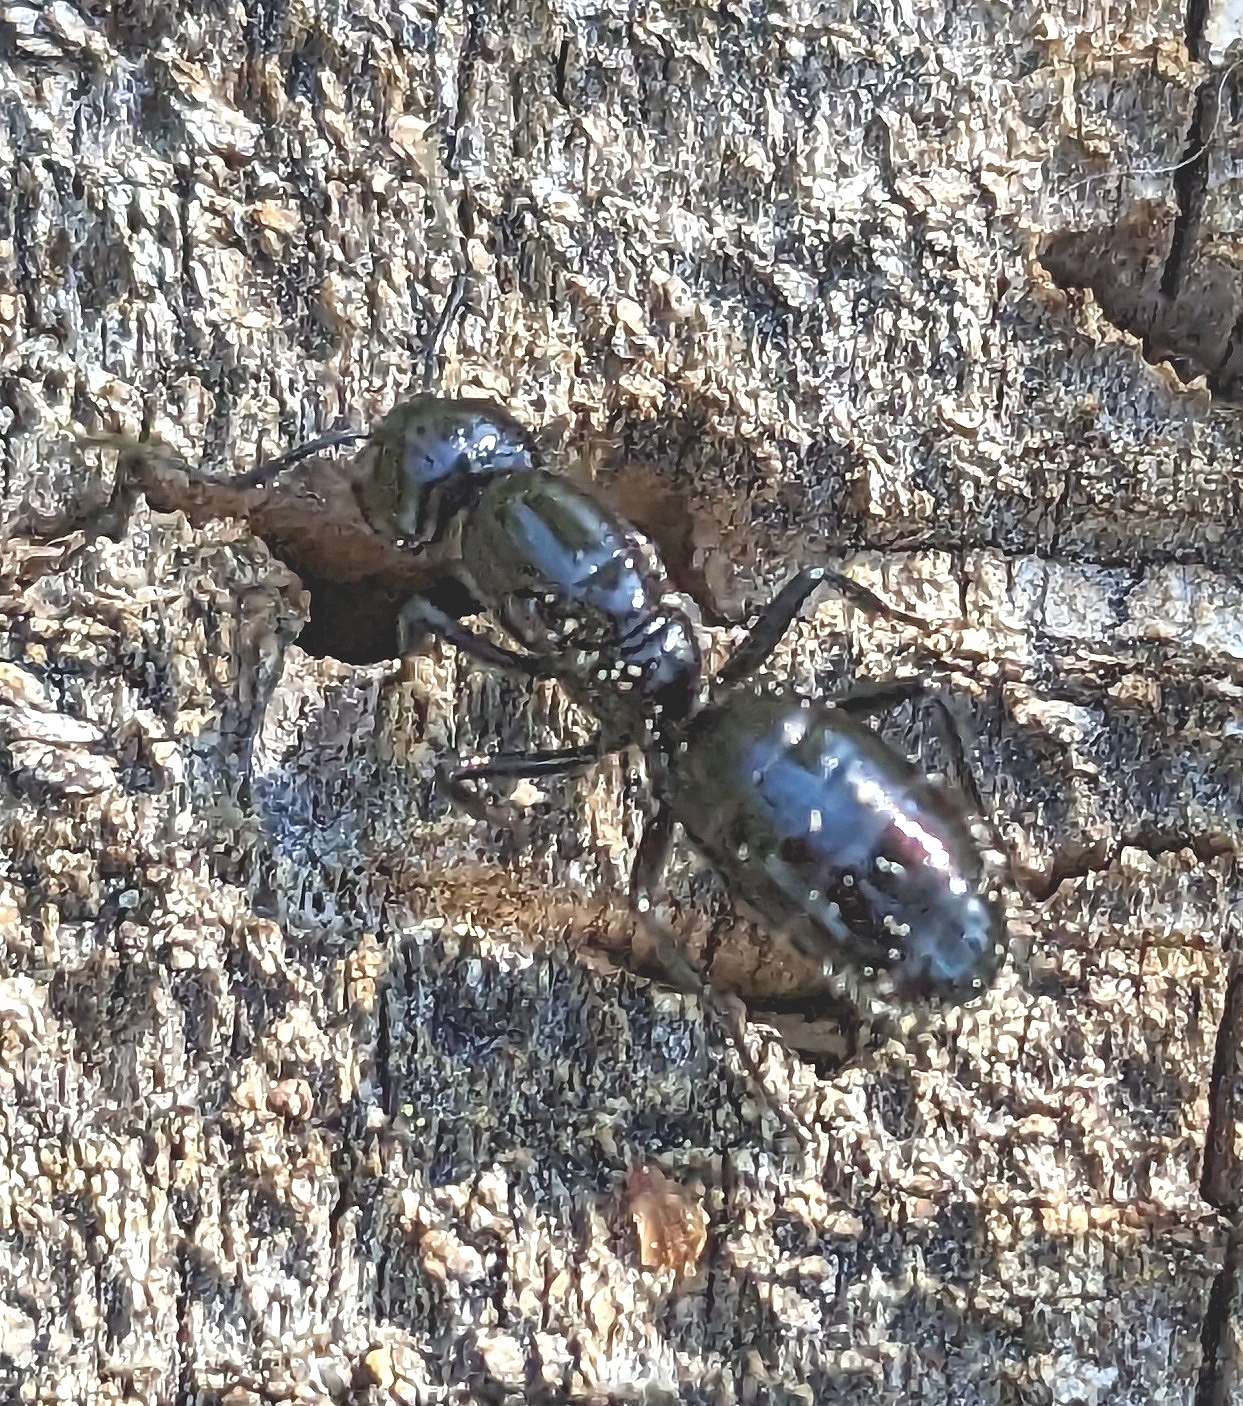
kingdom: Animalia
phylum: Arthropoda
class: Insecta
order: Hymenoptera
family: Formicidae
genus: Camponotus
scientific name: Camponotus
